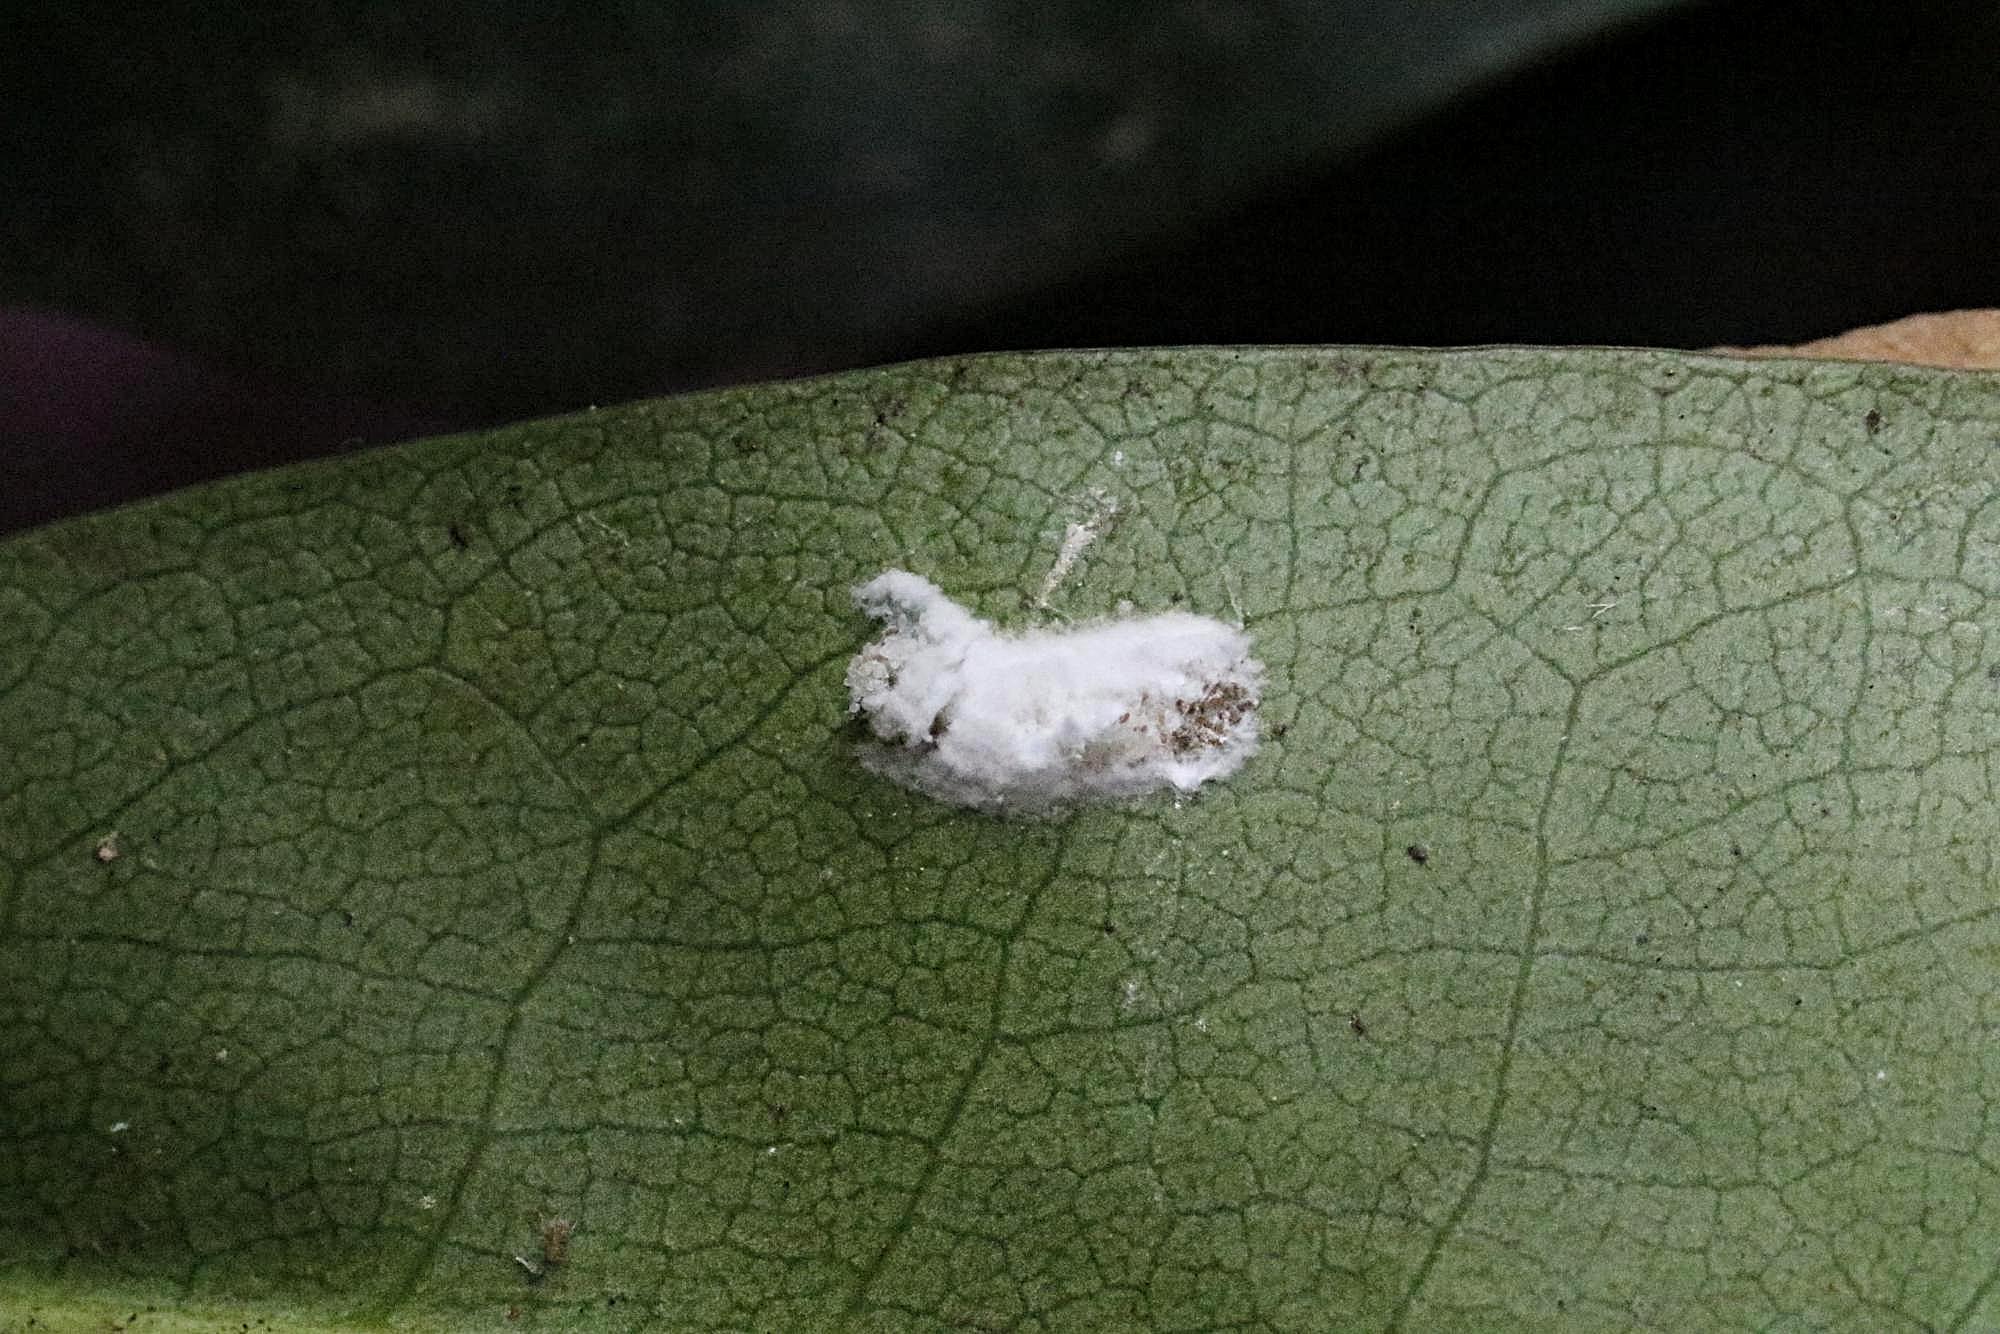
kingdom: Animalia
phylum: Arthropoda
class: Insecta
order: Hemiptera
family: Coccidae
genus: Pulvinaria
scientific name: Pulvinaria floccifera
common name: Cottony camellia scale
